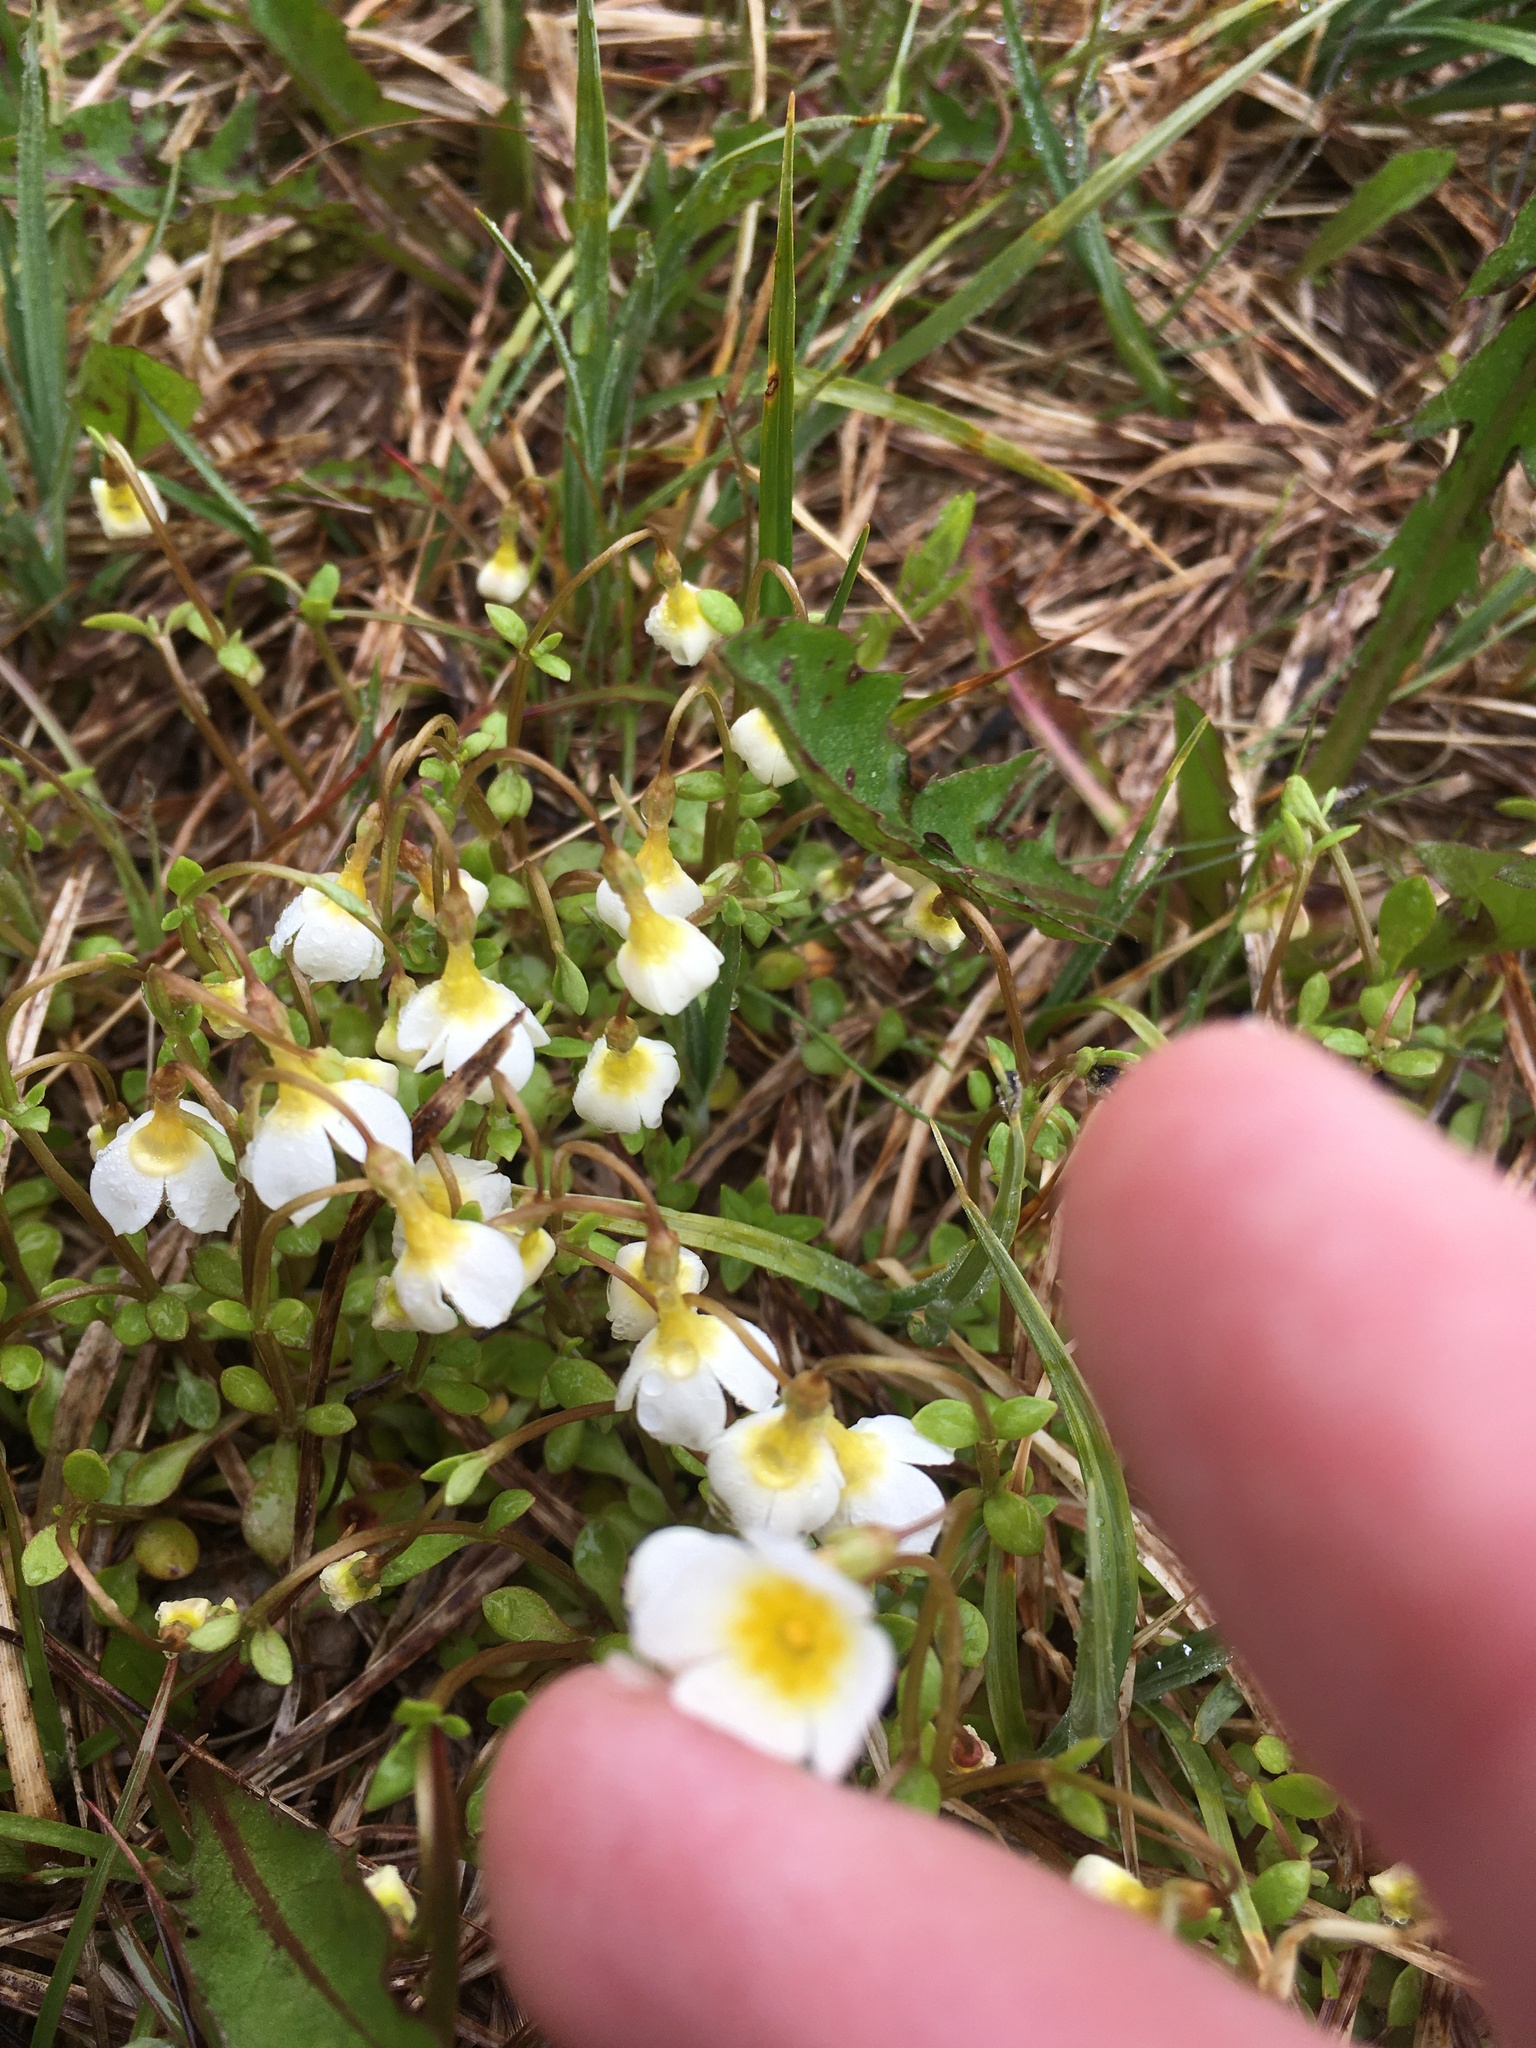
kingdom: Plantae
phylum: Tracheophyta
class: Magnoliopsida
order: Gentianales
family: Rubiaceae
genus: Houstonia
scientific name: Houstonia caerulea
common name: Bluets
